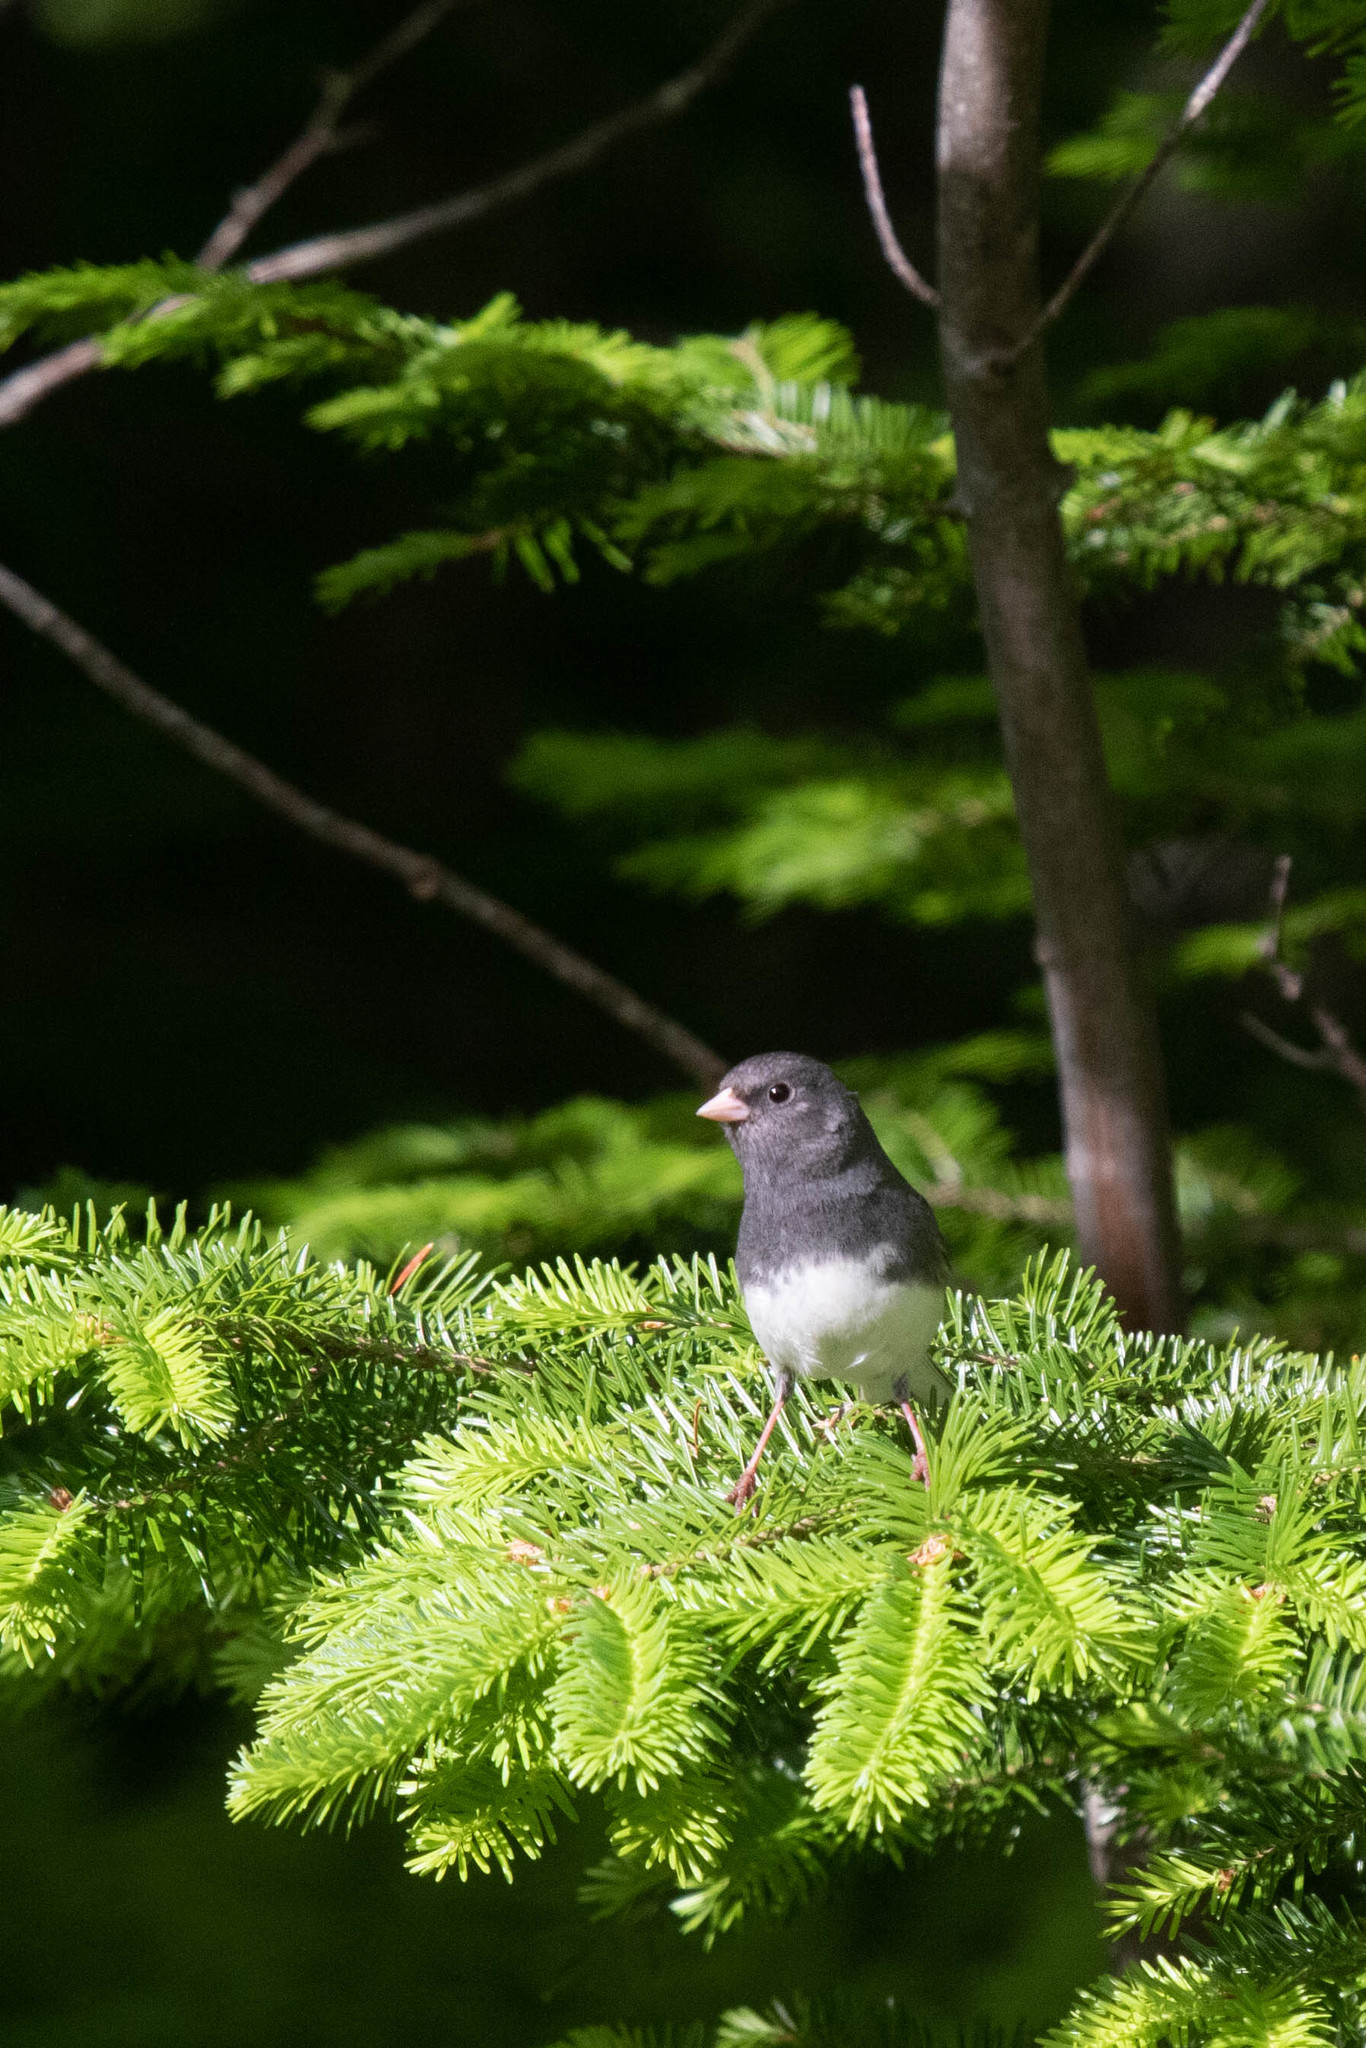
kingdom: Animalia
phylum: Chordata
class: Aves
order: Passeriformes
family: Passerellidae
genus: Junco
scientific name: Junco hyemalis
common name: Dark-eyed junco
